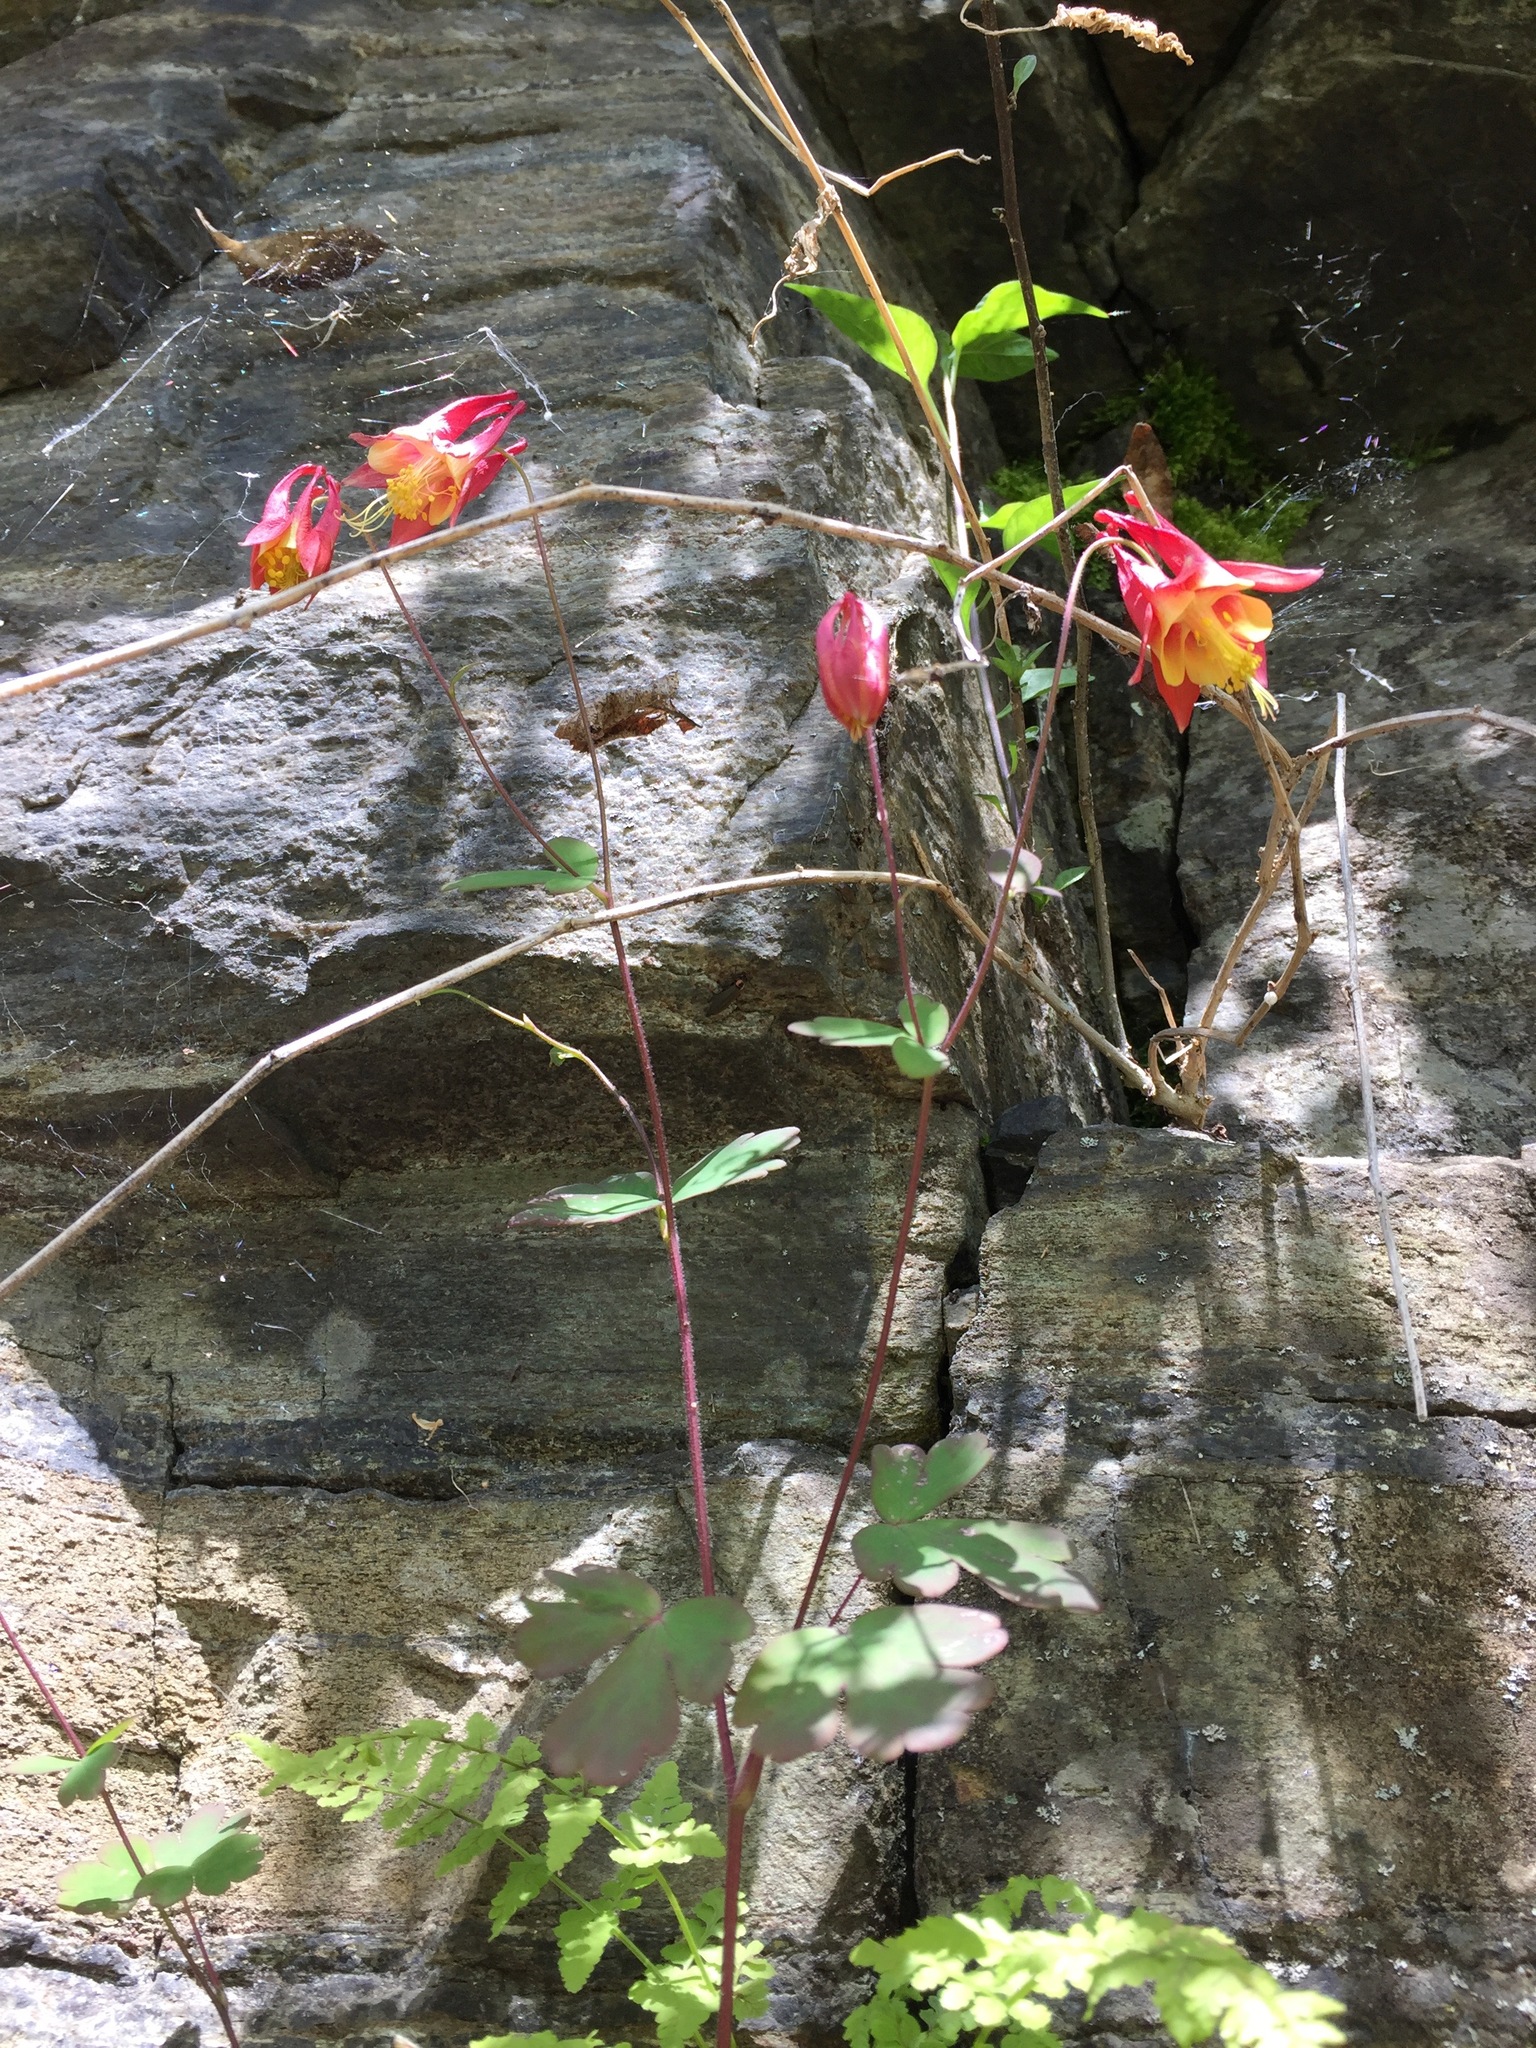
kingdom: Plantae
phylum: Tracheophyta
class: Magnoliopsida
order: Ranunculales
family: Ranunculaceae
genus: Aquilegia
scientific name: Aquilegia canadensis
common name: American columbine
